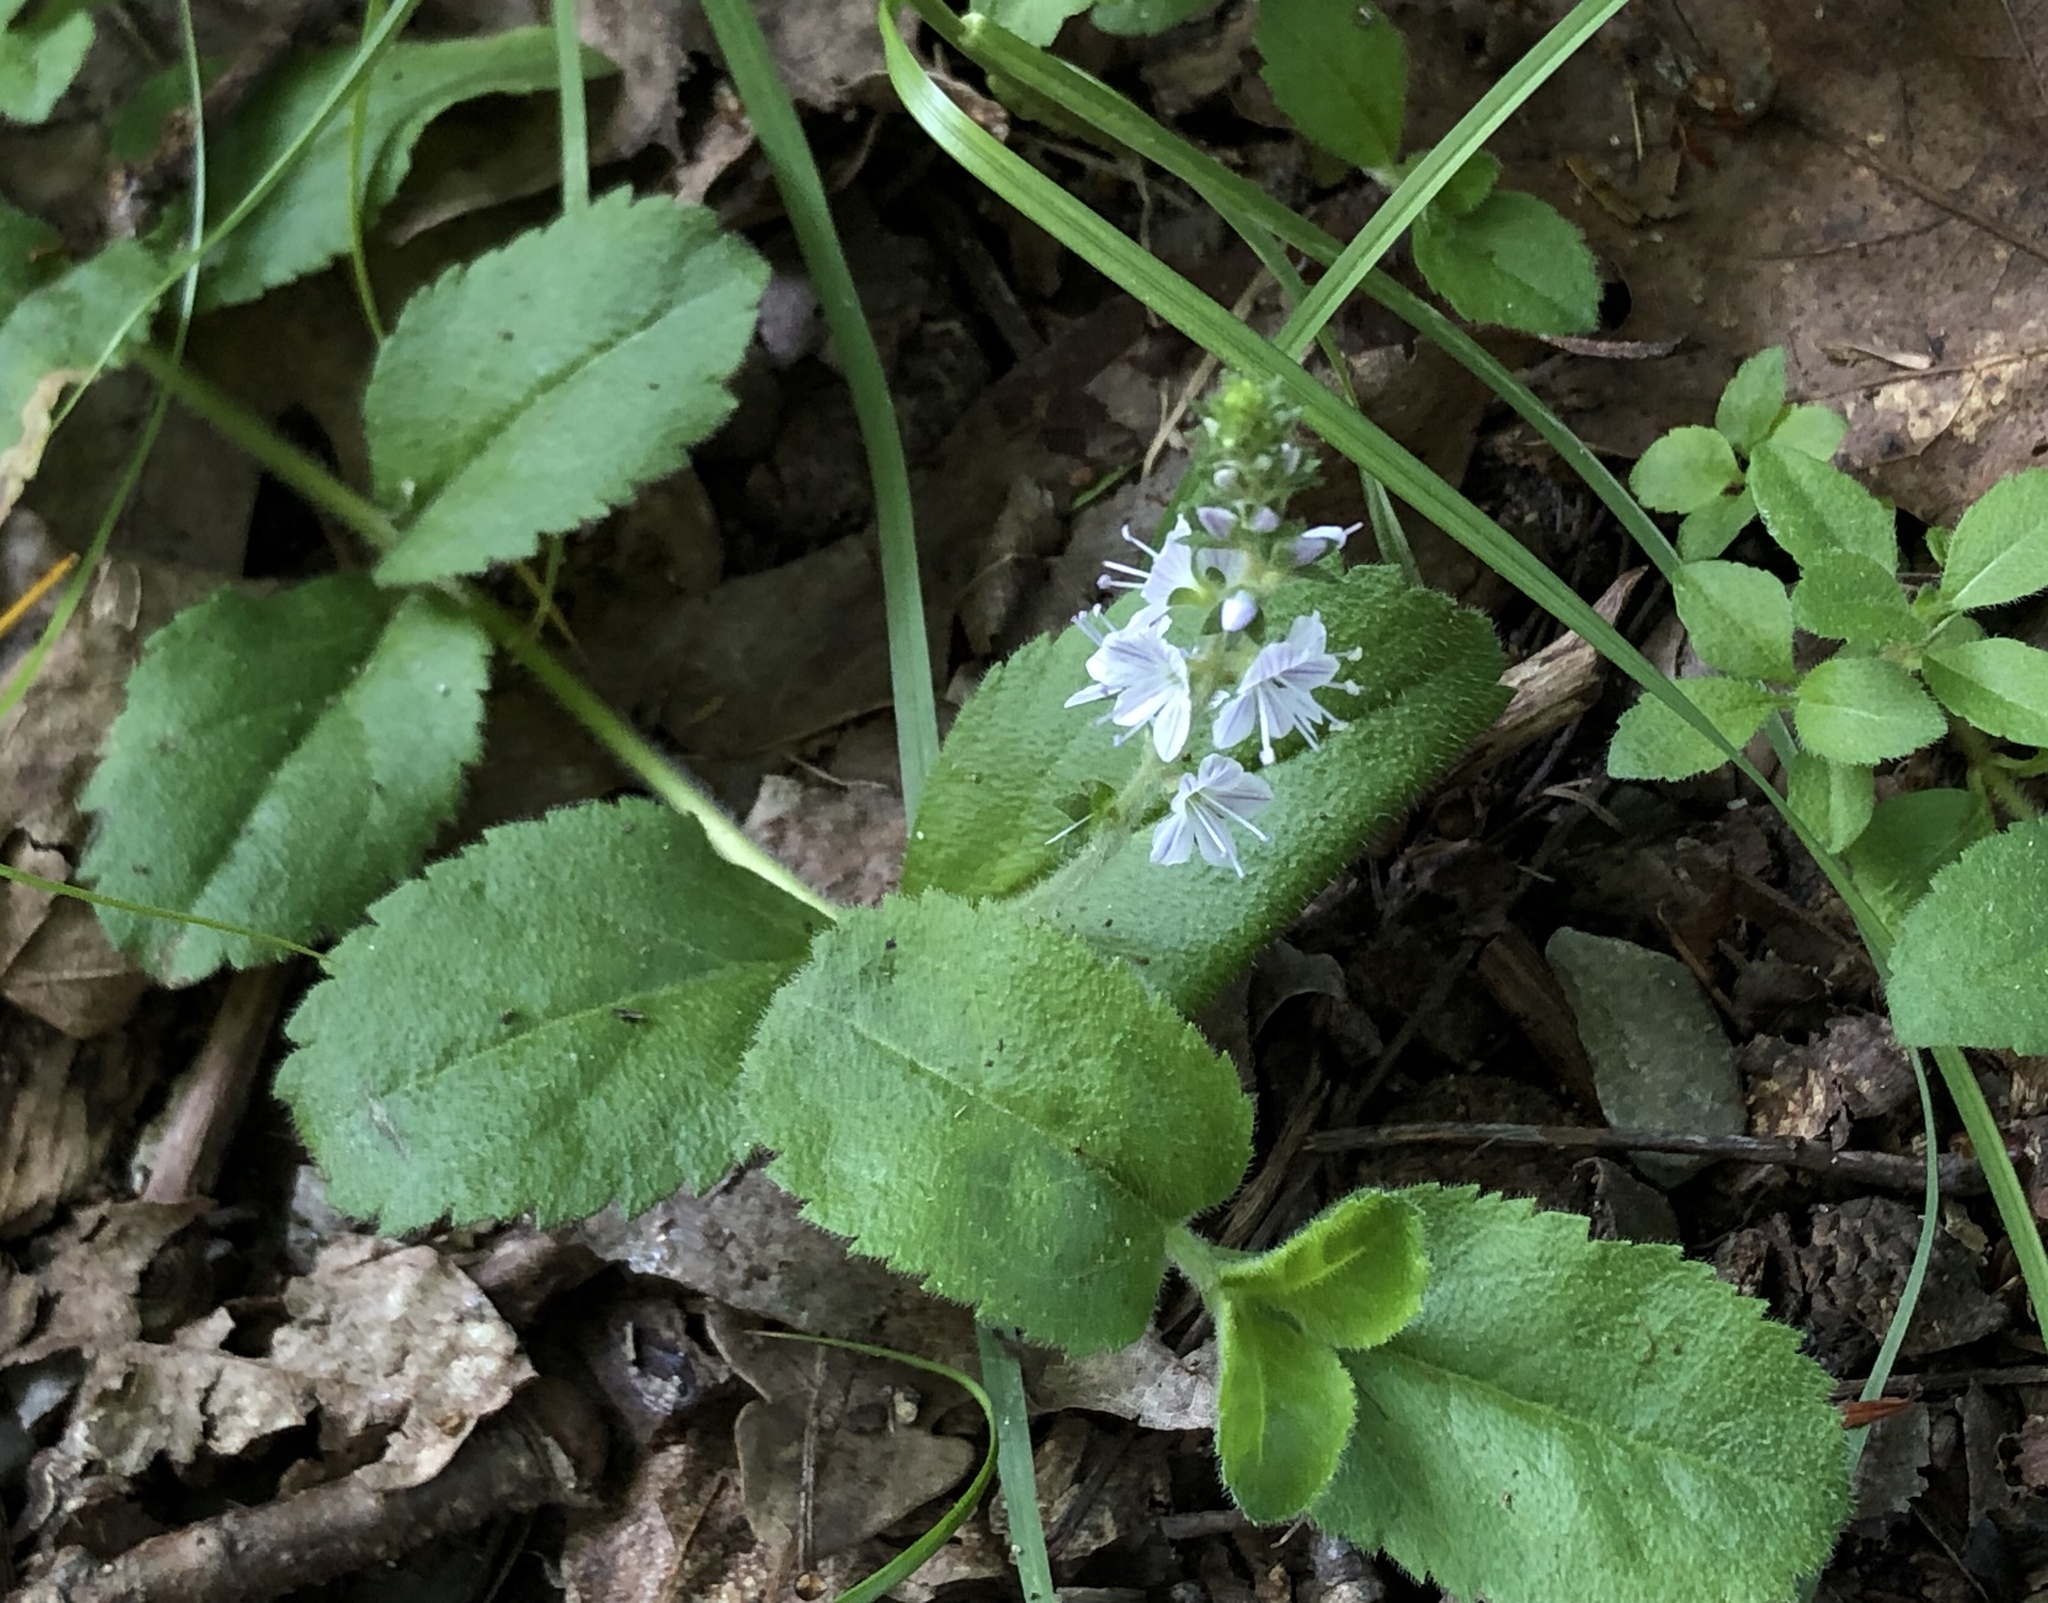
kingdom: Plantae
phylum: Tracheophyta
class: Magnoliopsida
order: Lamiales
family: Plantaginaceae
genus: Veronica
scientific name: Veronica officinalis
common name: Common speedwell
